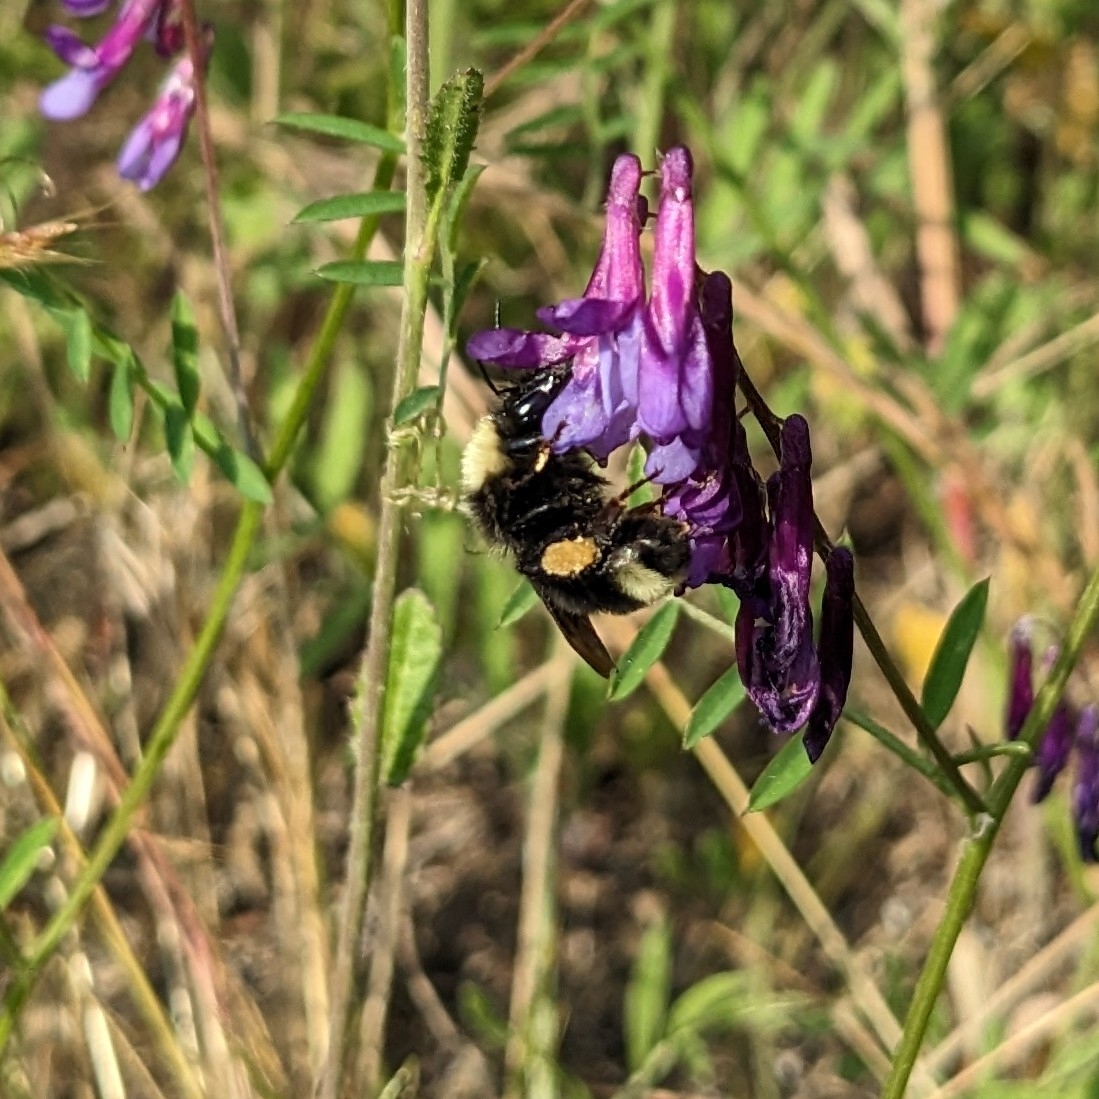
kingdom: Animalia
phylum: Arthropoda
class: Insecta
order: Hymenoptera
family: Apidae
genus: Bombus
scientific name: Bombus californicus
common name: California bumble bee
